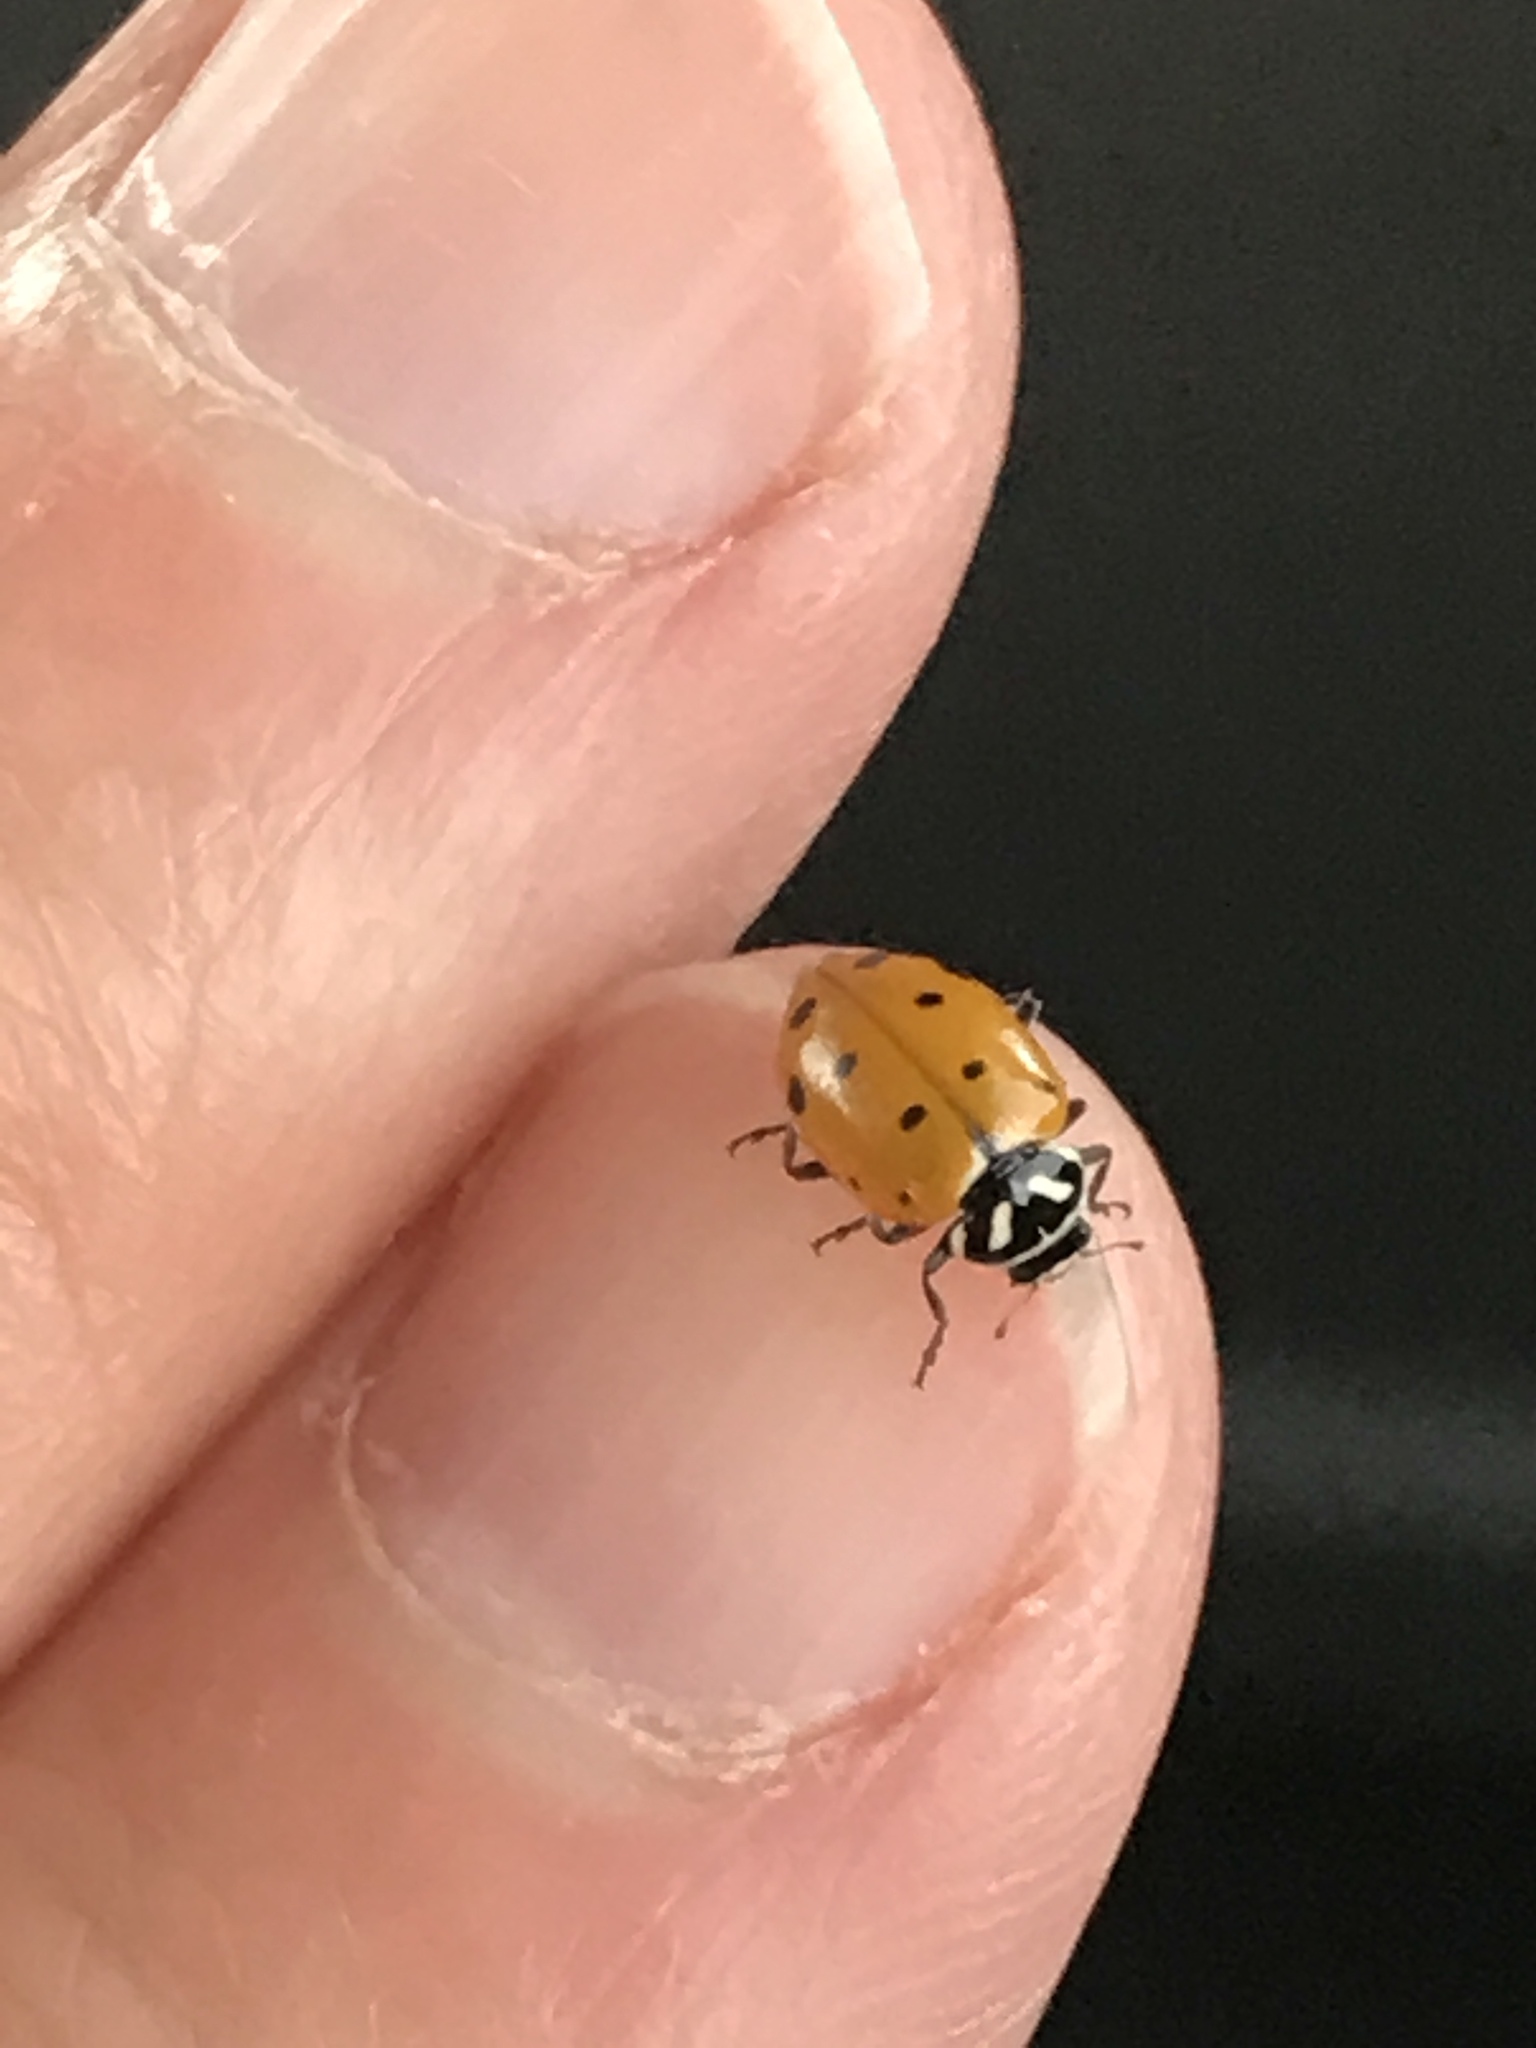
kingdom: Animalia
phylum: Arthropoda
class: Insecta
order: Coleoptera
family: Coccinellidae
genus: Hippodamia
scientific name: Hippodamia convergens
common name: Convergent lady beetle
